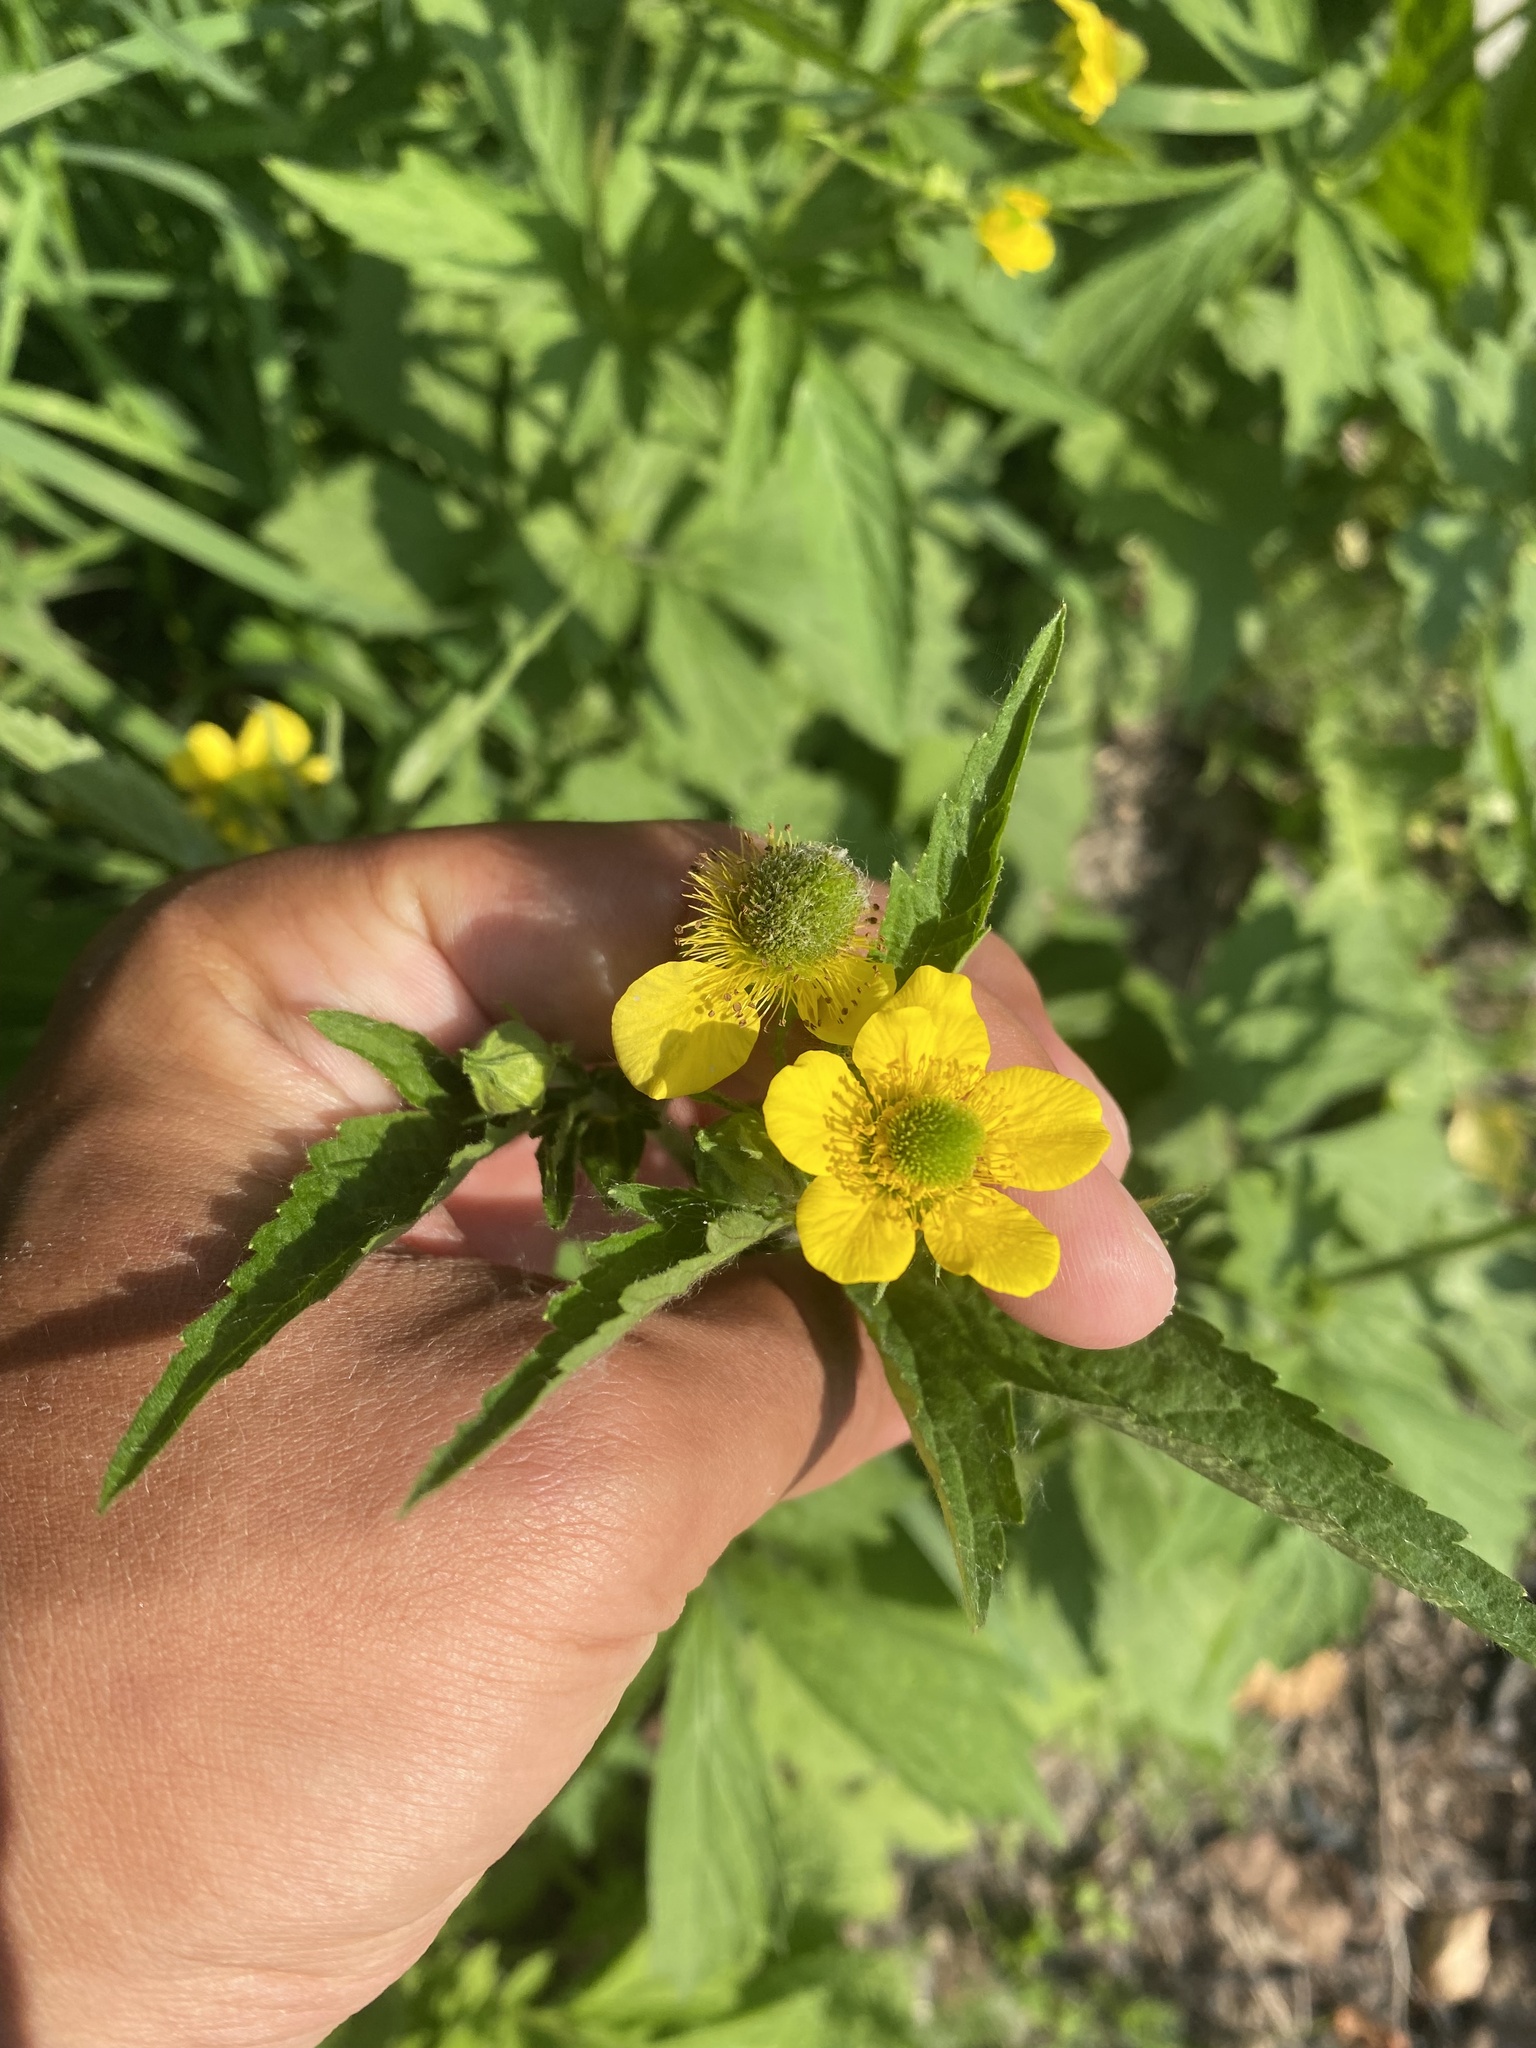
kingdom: Plantae
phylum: Tracheophyta
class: Magnoliopsida
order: Rosales
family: Rosaceae
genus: Geum
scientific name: Geum aleppicum
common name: Yellow avens
